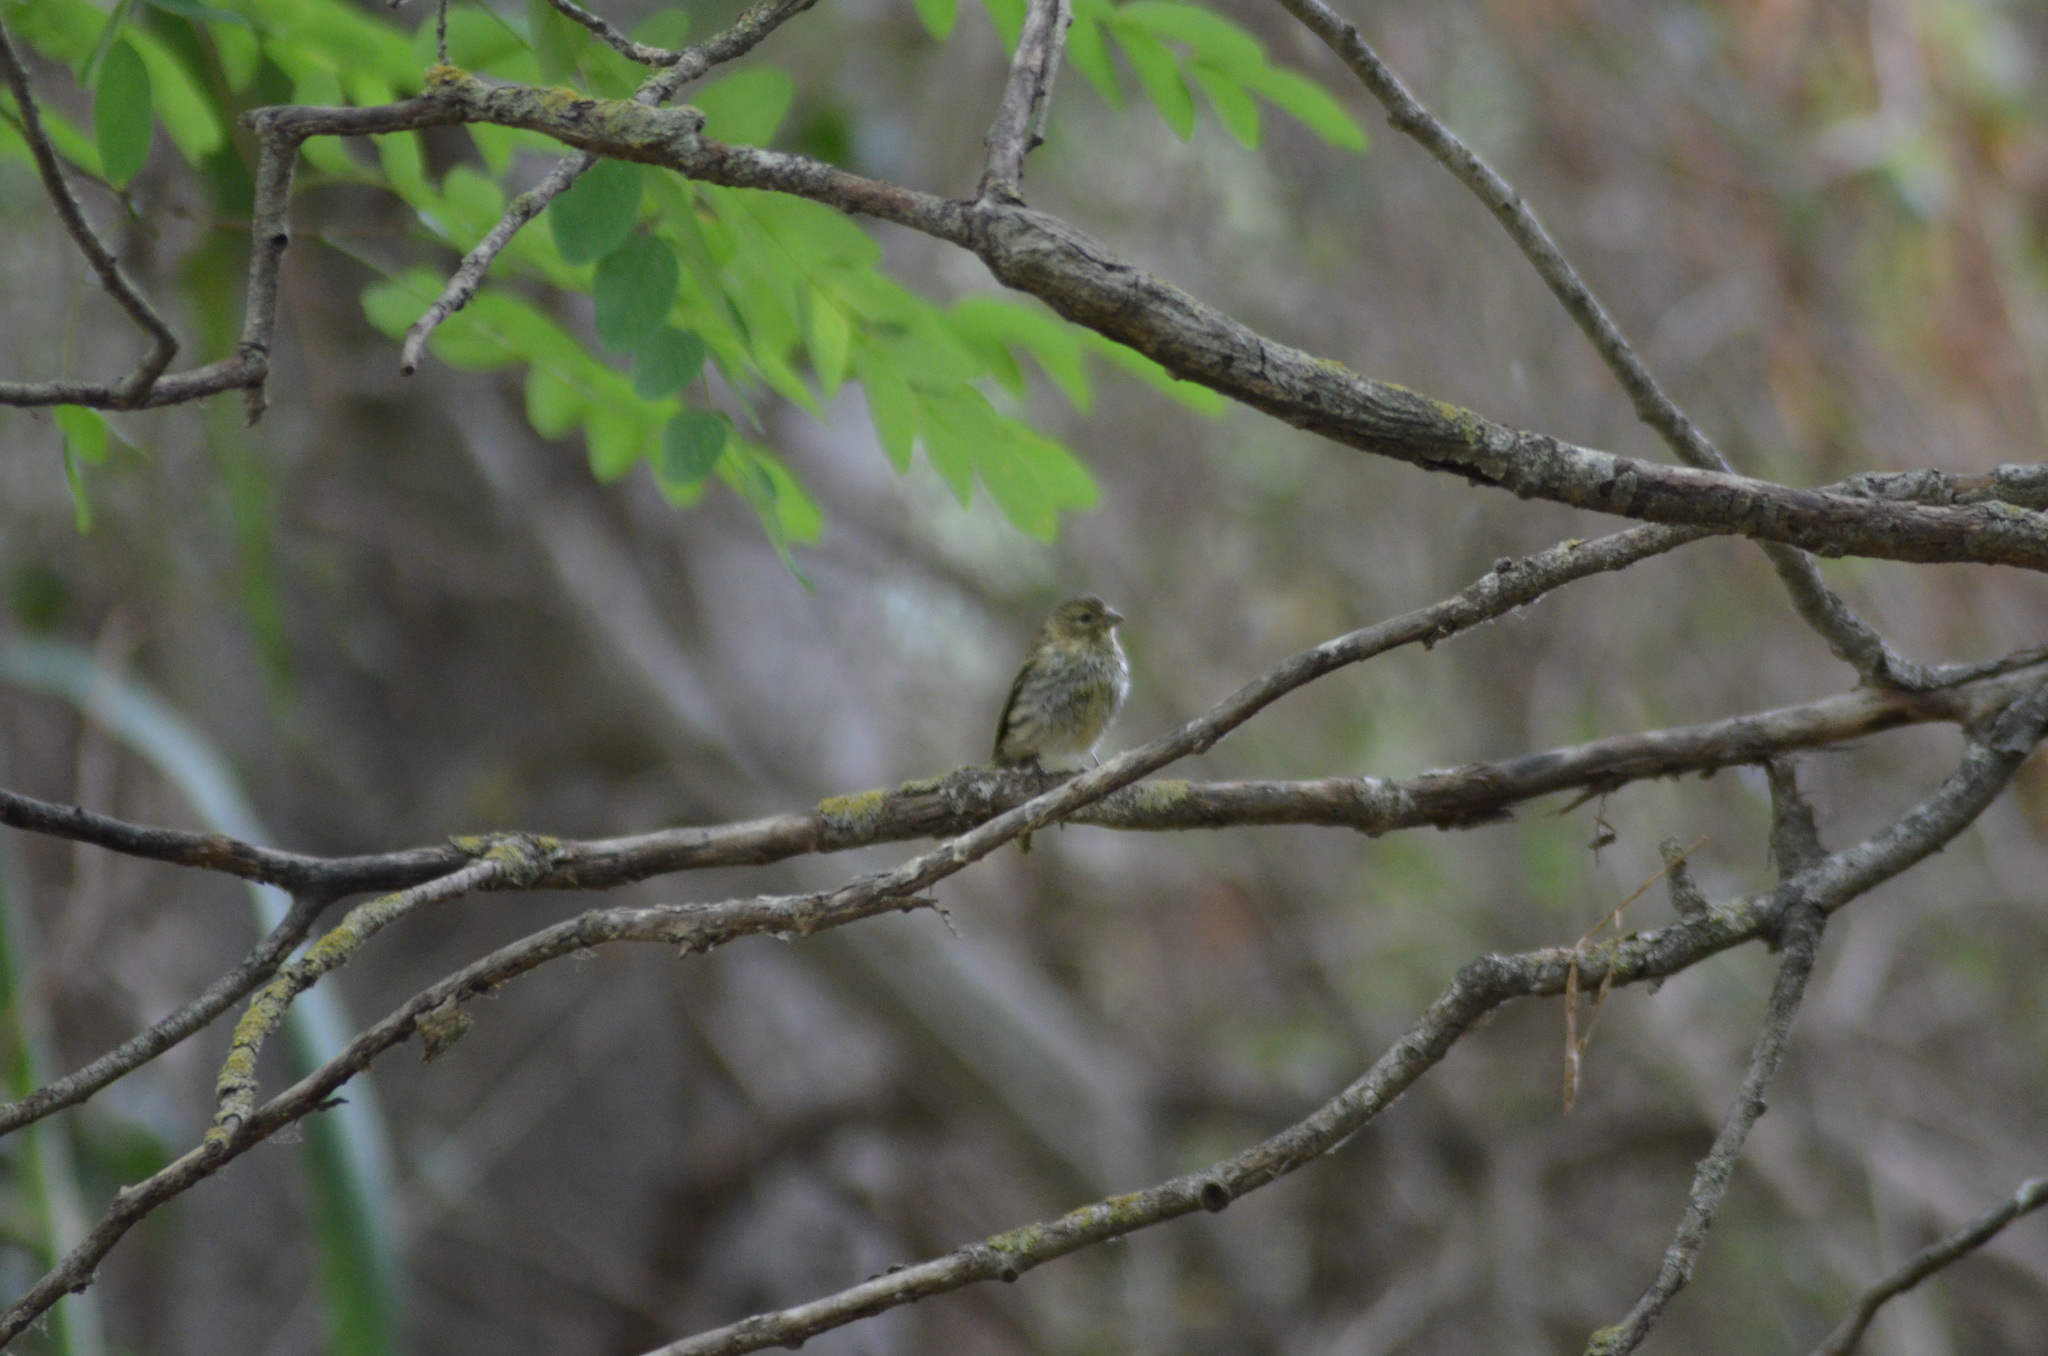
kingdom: Animalia
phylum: Chordata
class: Aves
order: Passeriformes
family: Fringillidae
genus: Serinus
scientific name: Serinus serinus
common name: European serin
